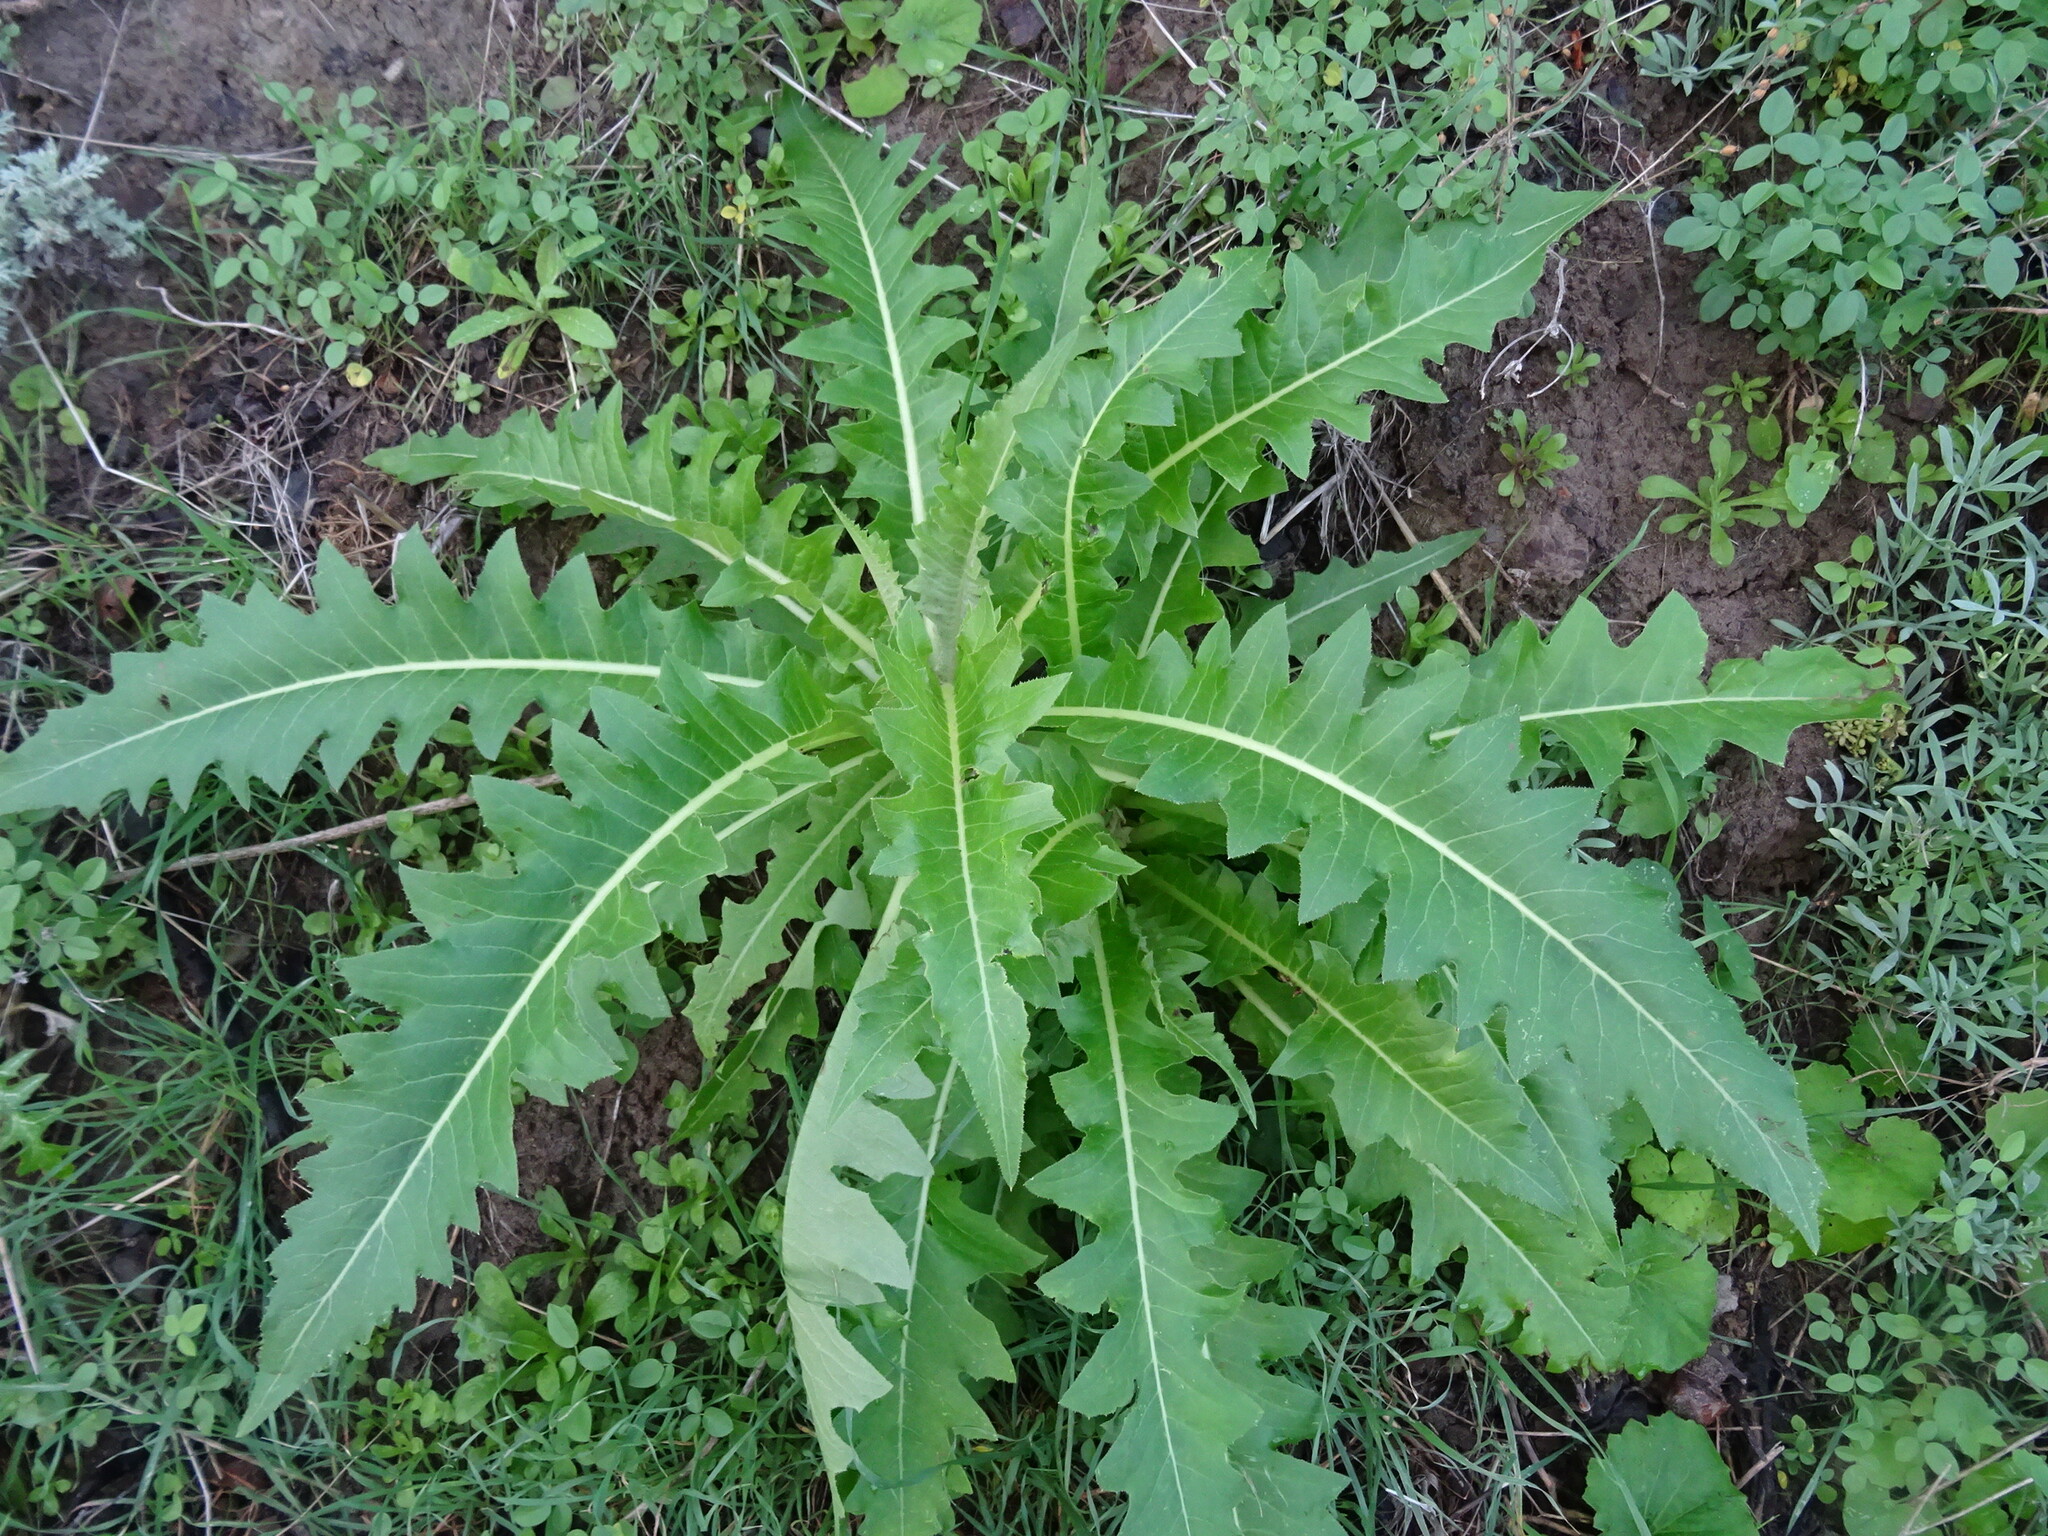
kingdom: Plantae
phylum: Tracheophyta
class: Magnoliopsida
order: Asterales
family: Asteraceae
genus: Sonchus
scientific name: Sonchus acaulis
